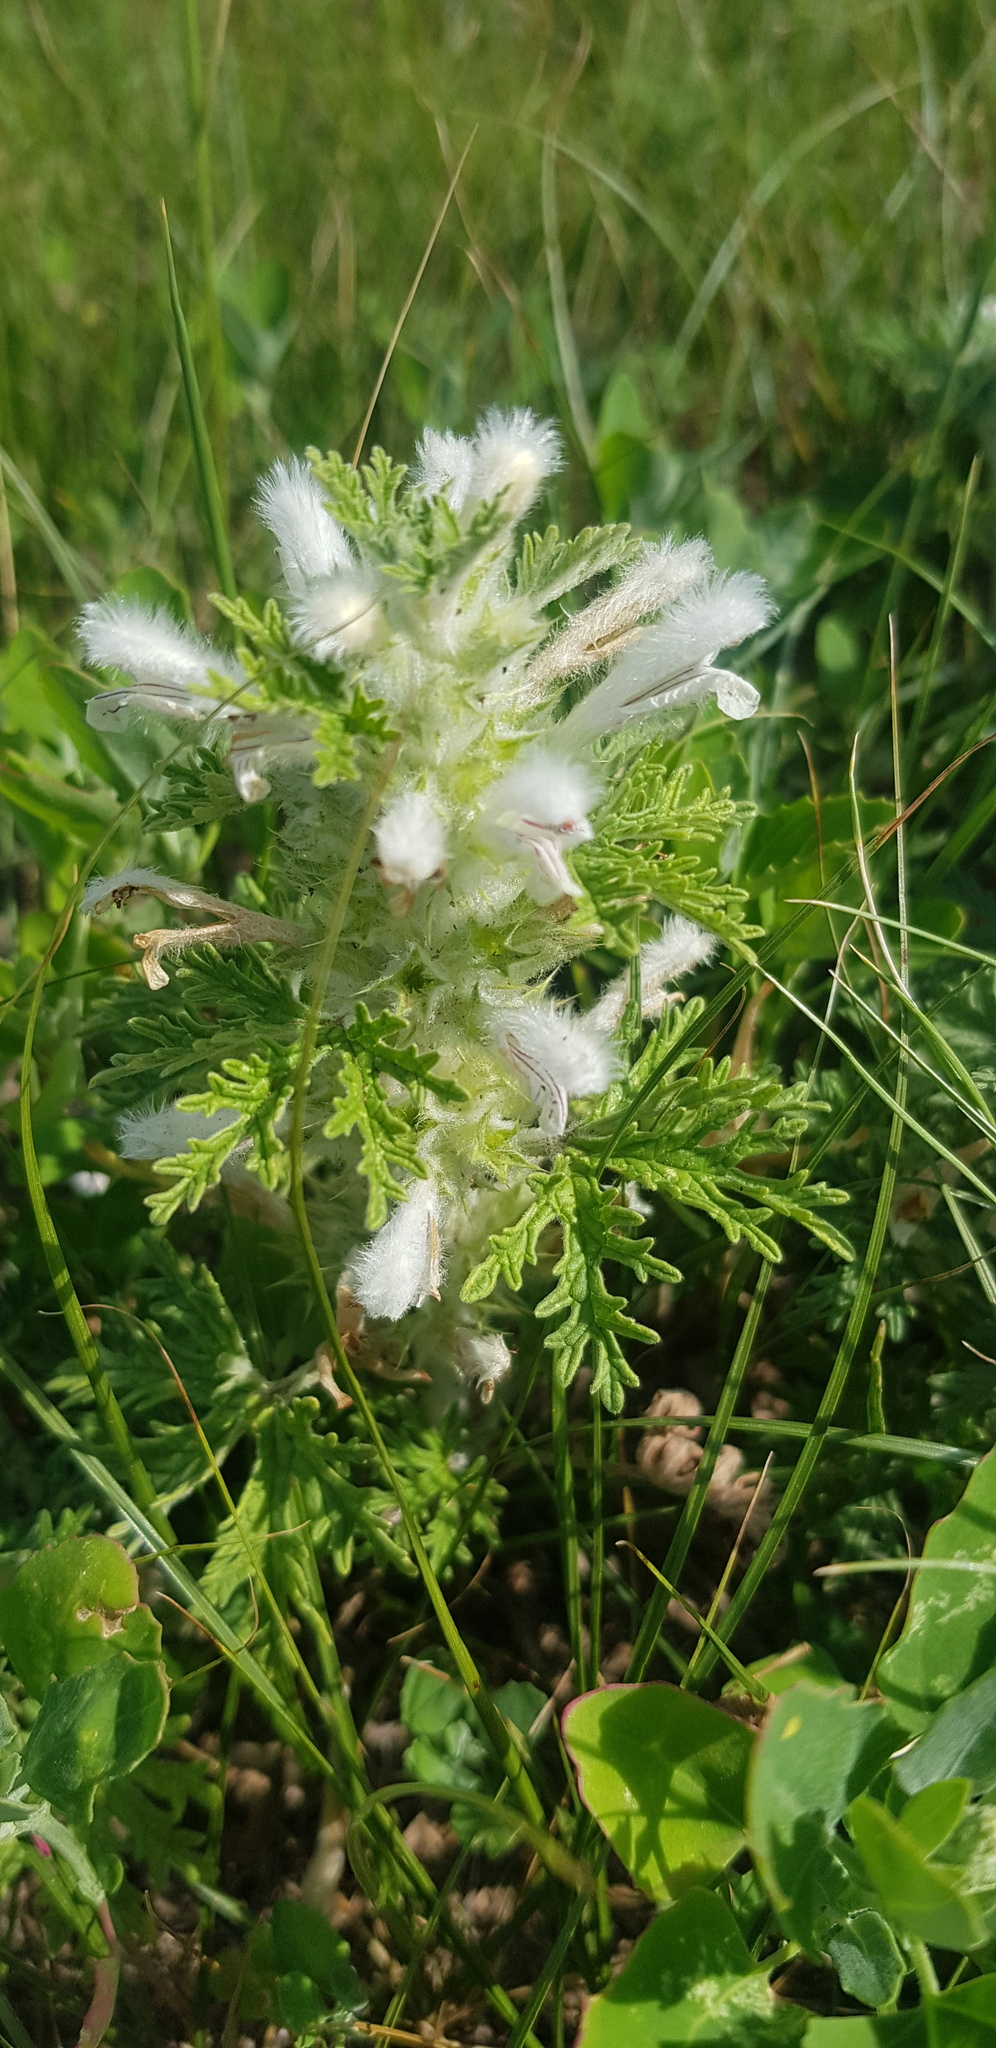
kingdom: Plantae
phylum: Tracheophyta
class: Magnoliopsida
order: Lamiales
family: Lamiaceae
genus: Panzerina
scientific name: Panzerina lanata
